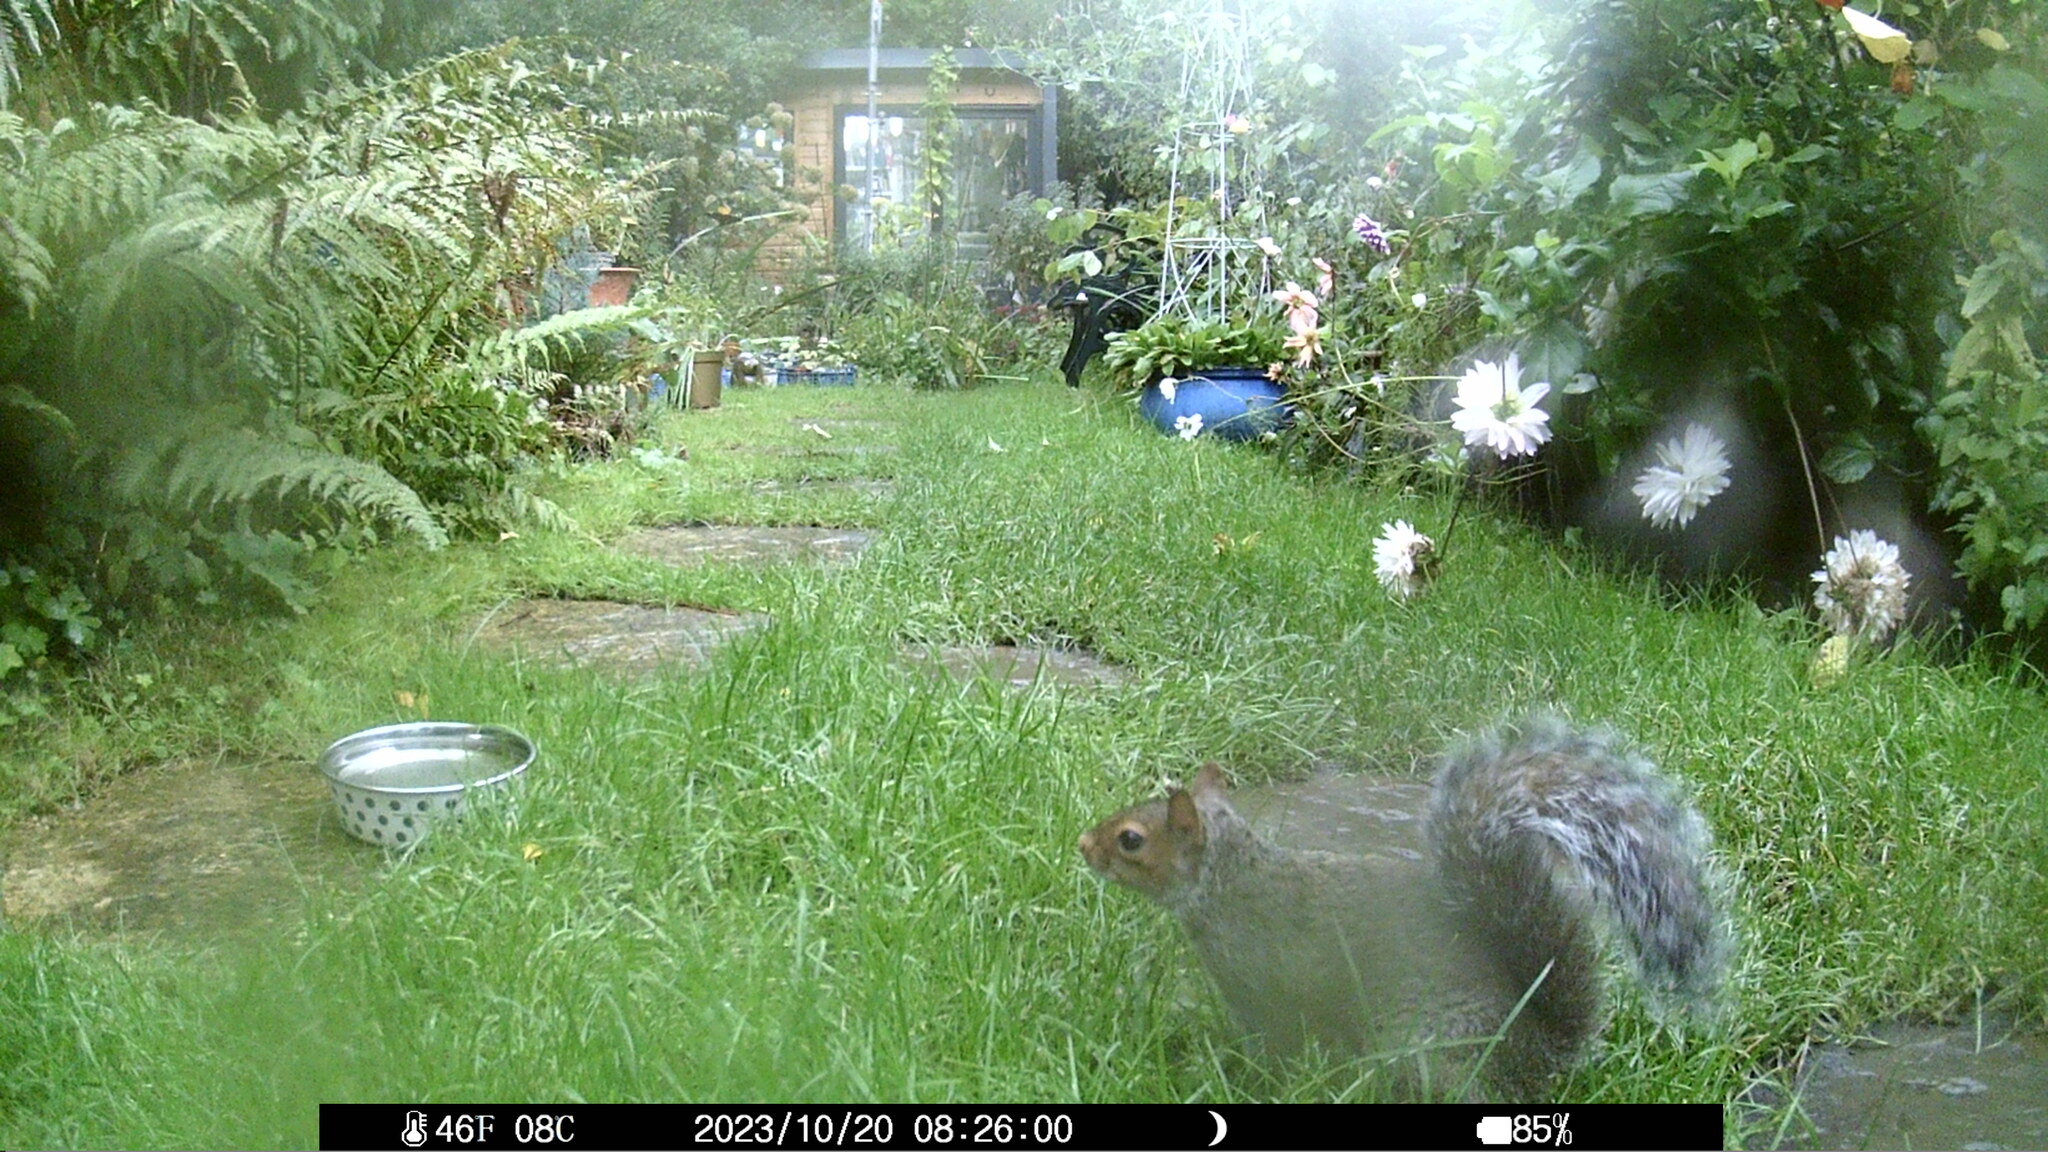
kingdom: Animalia
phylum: Chordata
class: Mammalia
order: Rodentia
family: Sciuridae
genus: Sciurus
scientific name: Sciurus carolinensis
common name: Eastern gray squirrel
